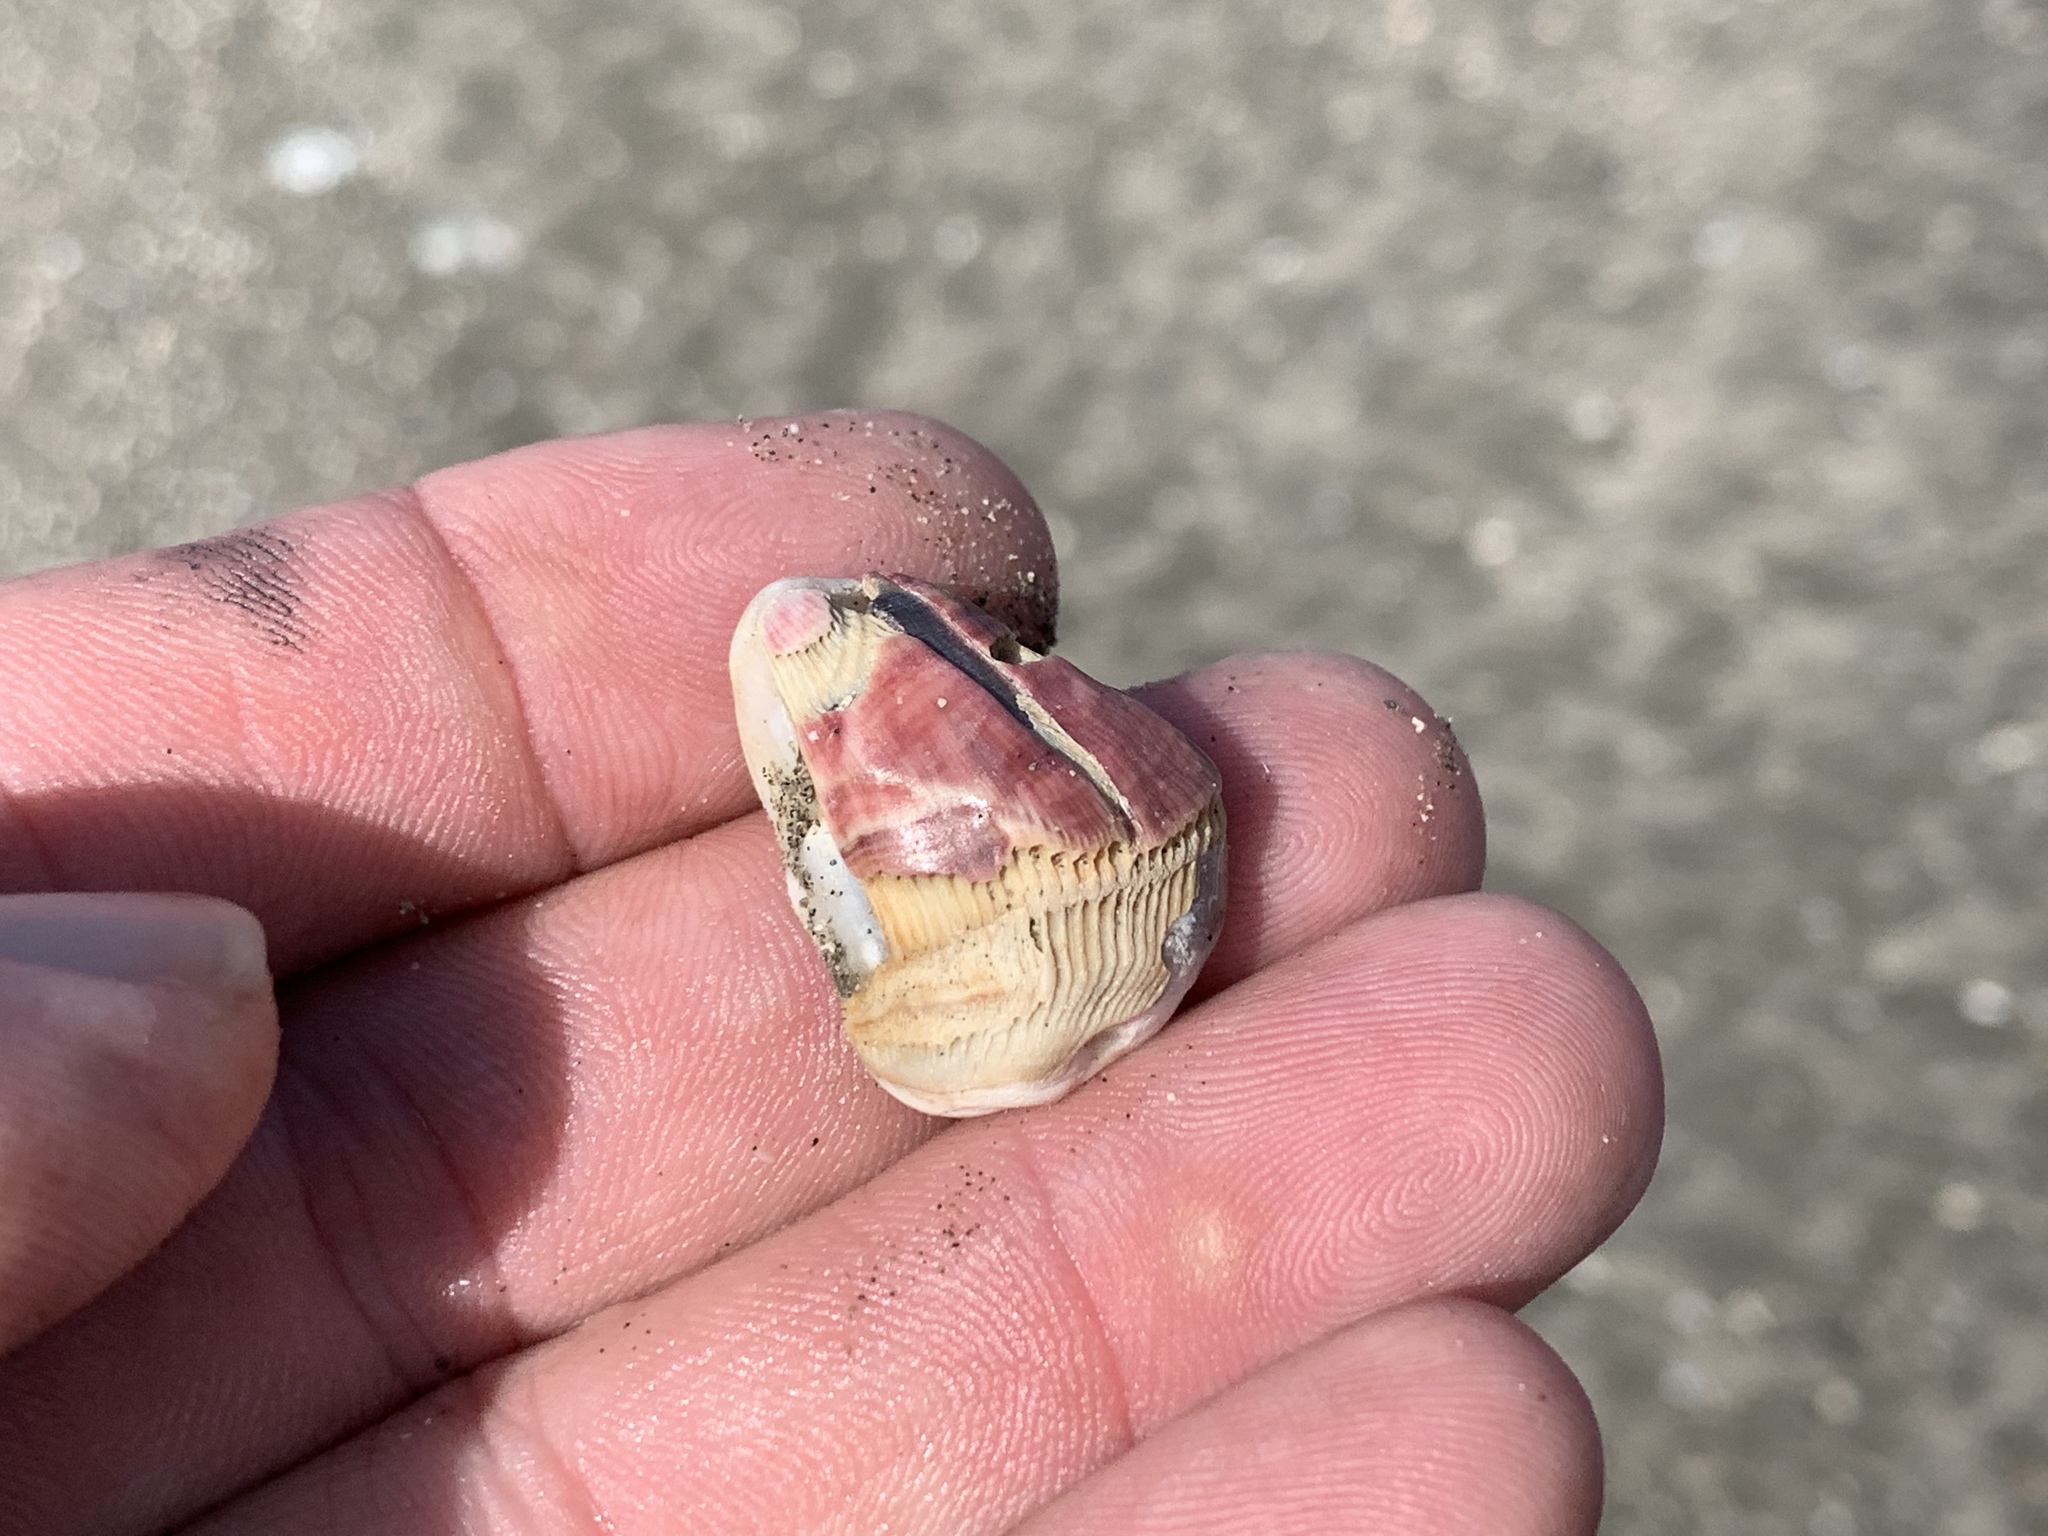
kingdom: Animalia
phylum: Arthropoda
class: Maxillopoda
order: Sessilia
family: Balanidae
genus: Megabalanus
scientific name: Megabalanus tintinnabulum
